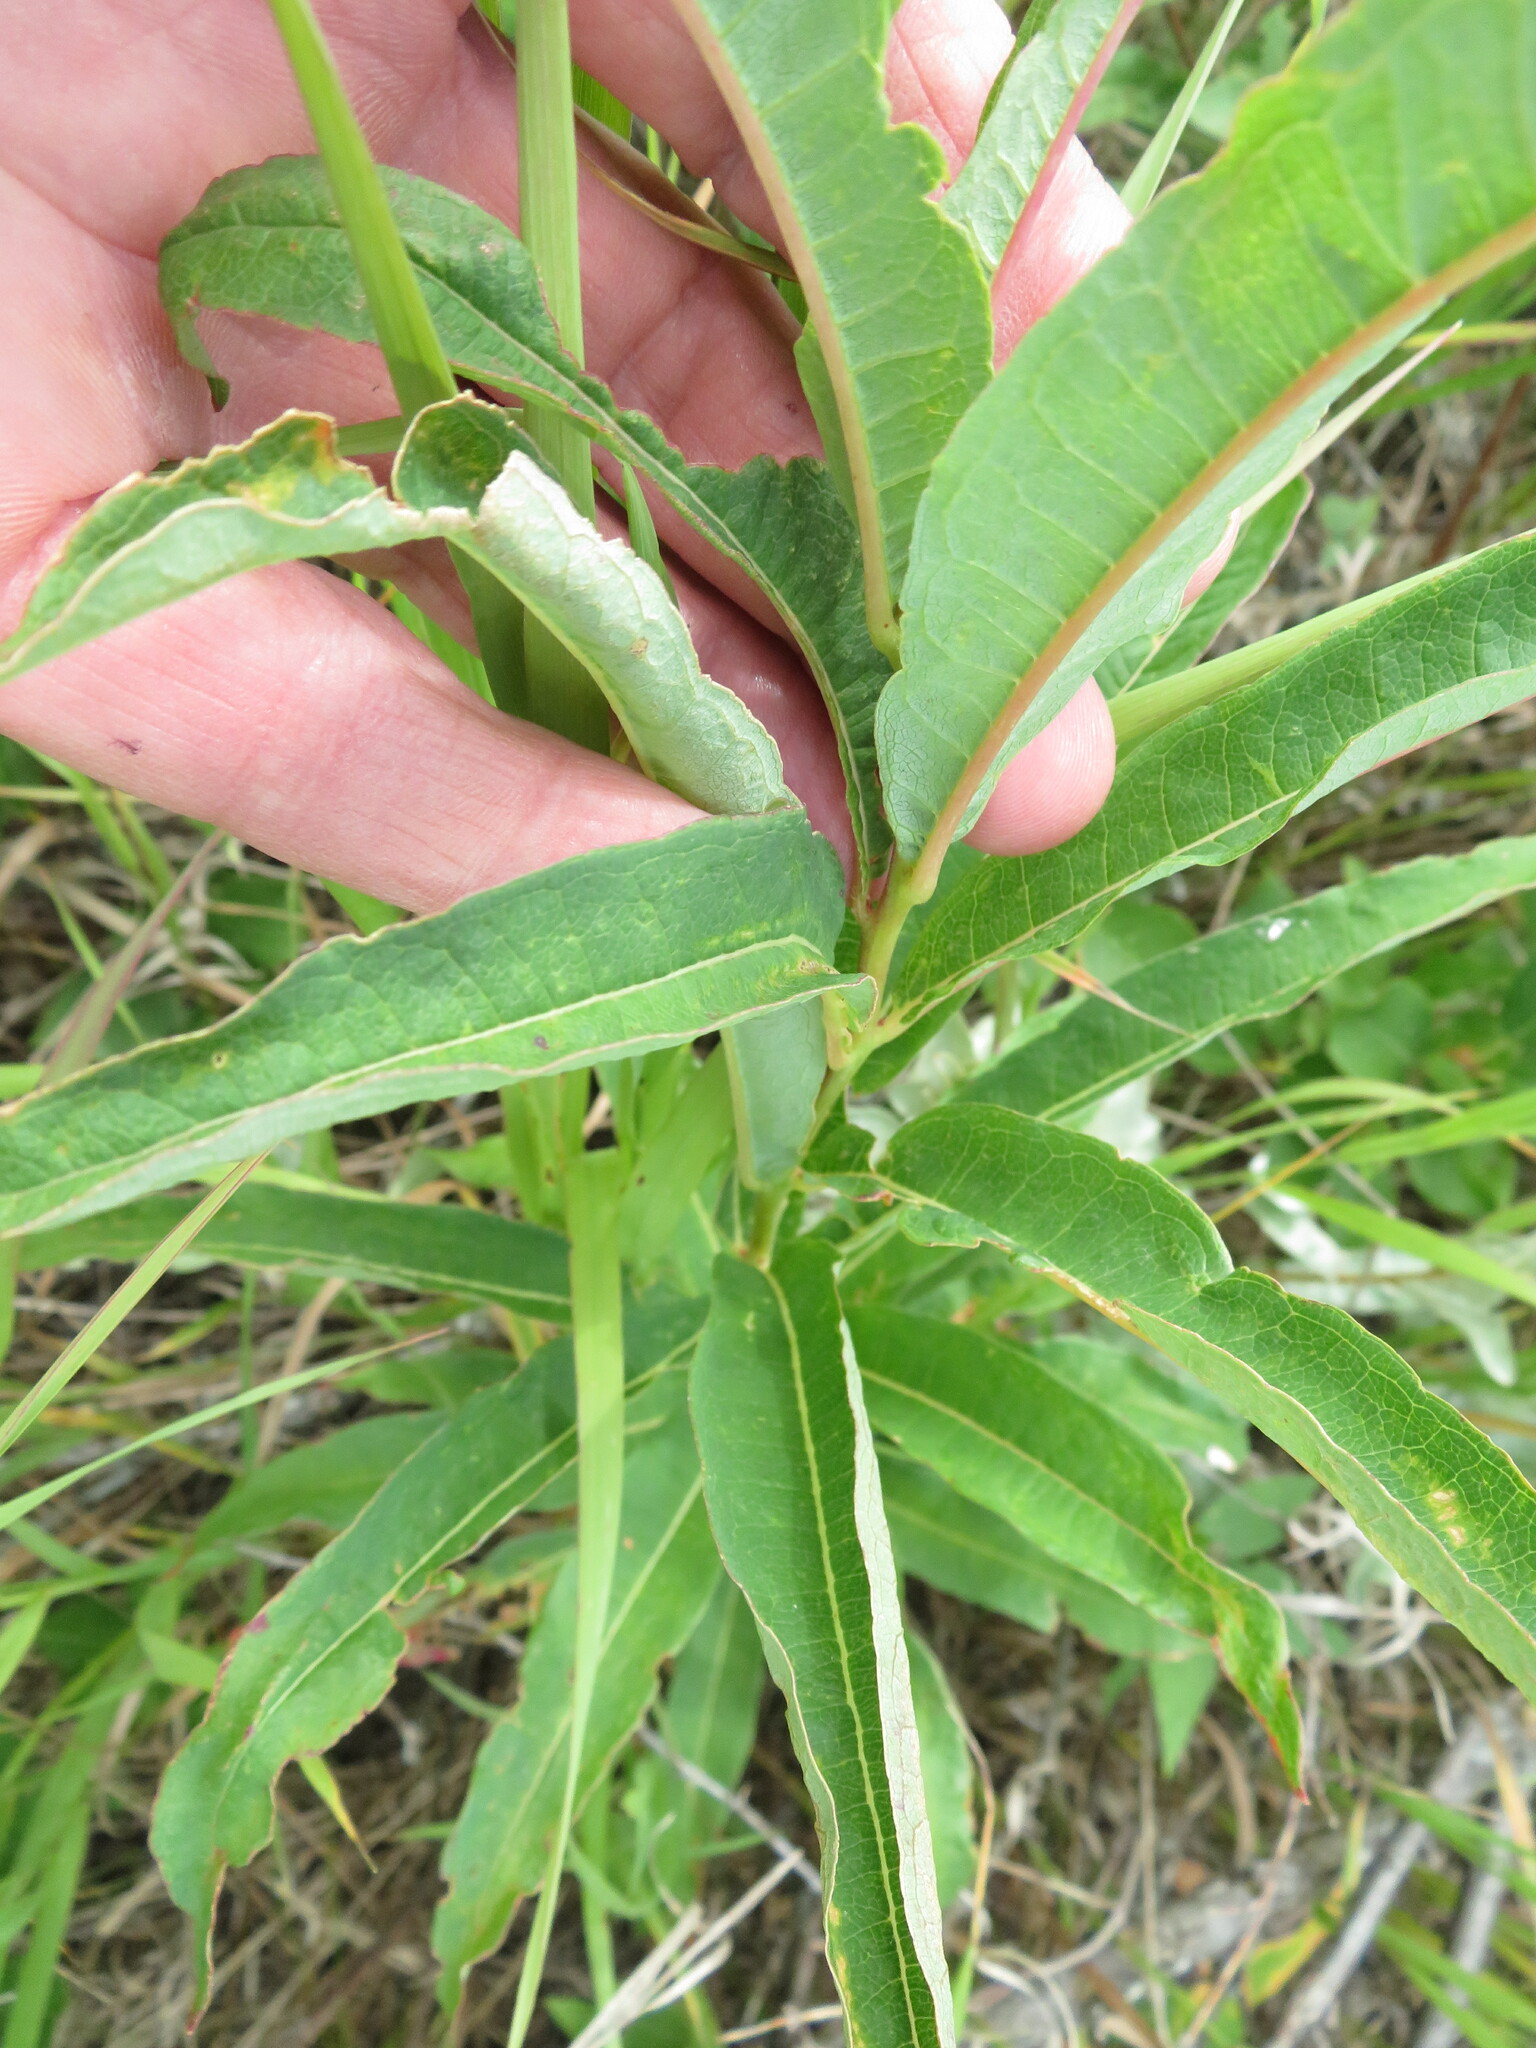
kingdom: Plantae
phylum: Tracheophyta
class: Magnoliopsida
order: Myrtales
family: Onagraceae
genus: Chamaenerion
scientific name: Chamaenerion angustifolium
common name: Fireweed
